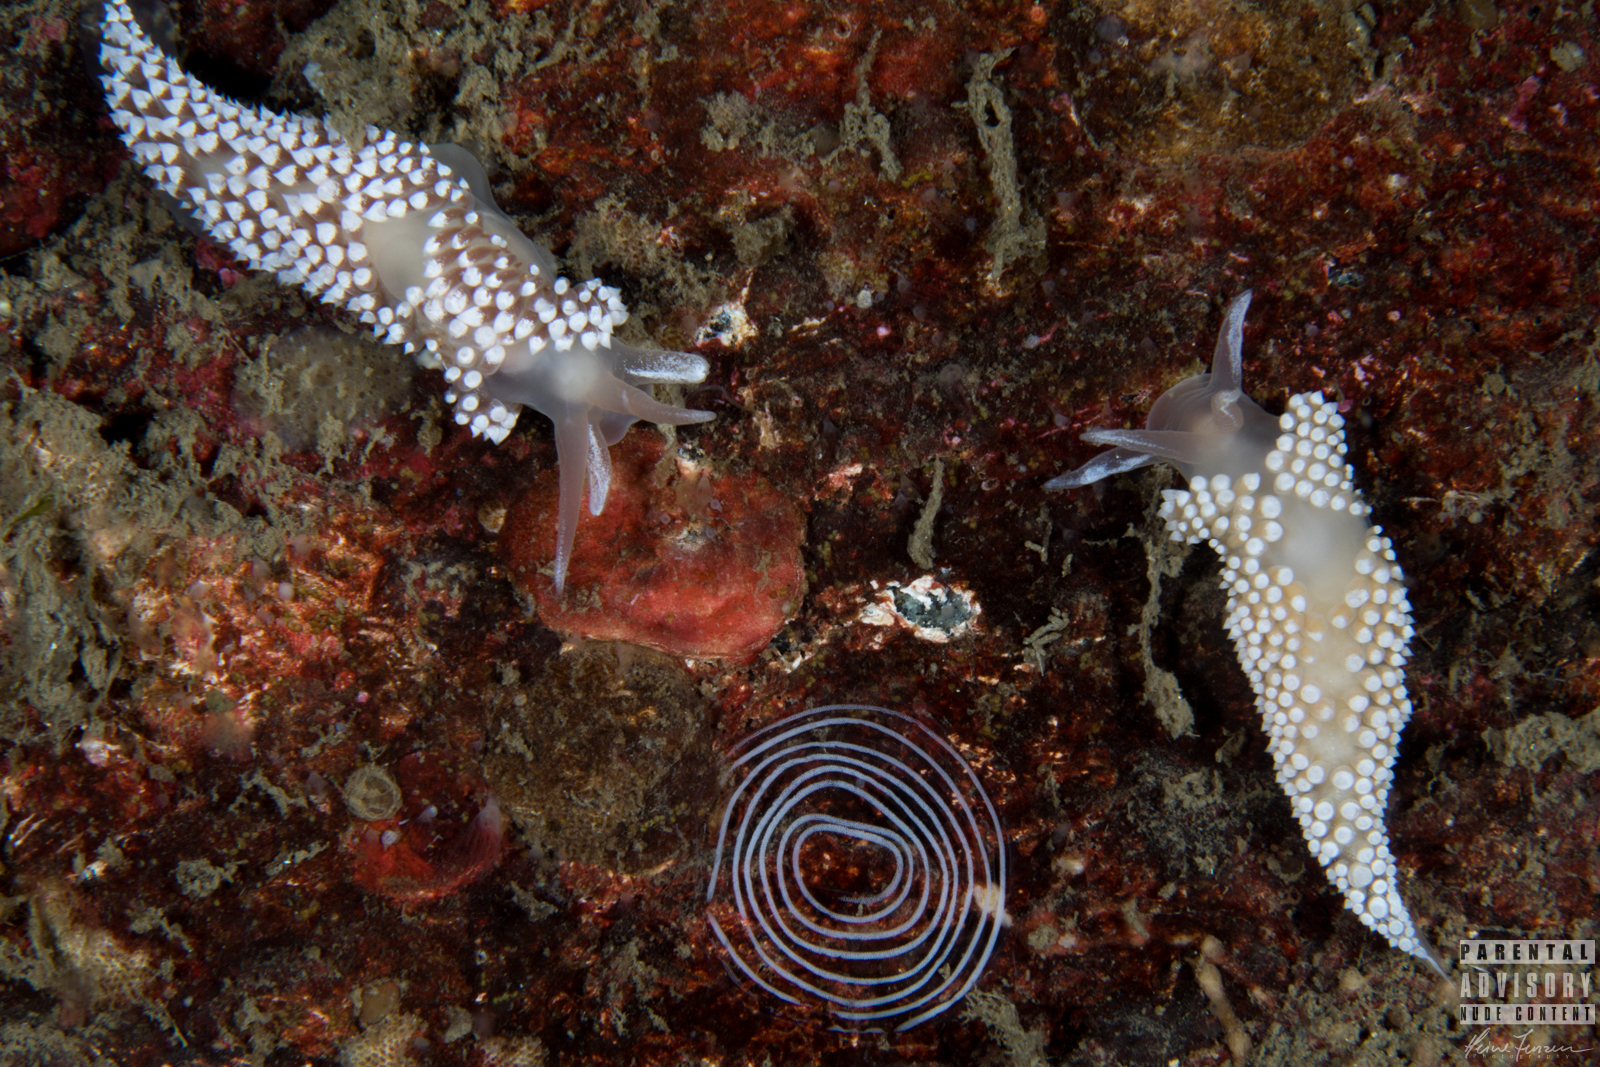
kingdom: Animalia
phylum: Mollusca
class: Gastropoda
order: Nudibranchia
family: Coryphellidae
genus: Coryphella
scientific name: Coryphella verrucosa
